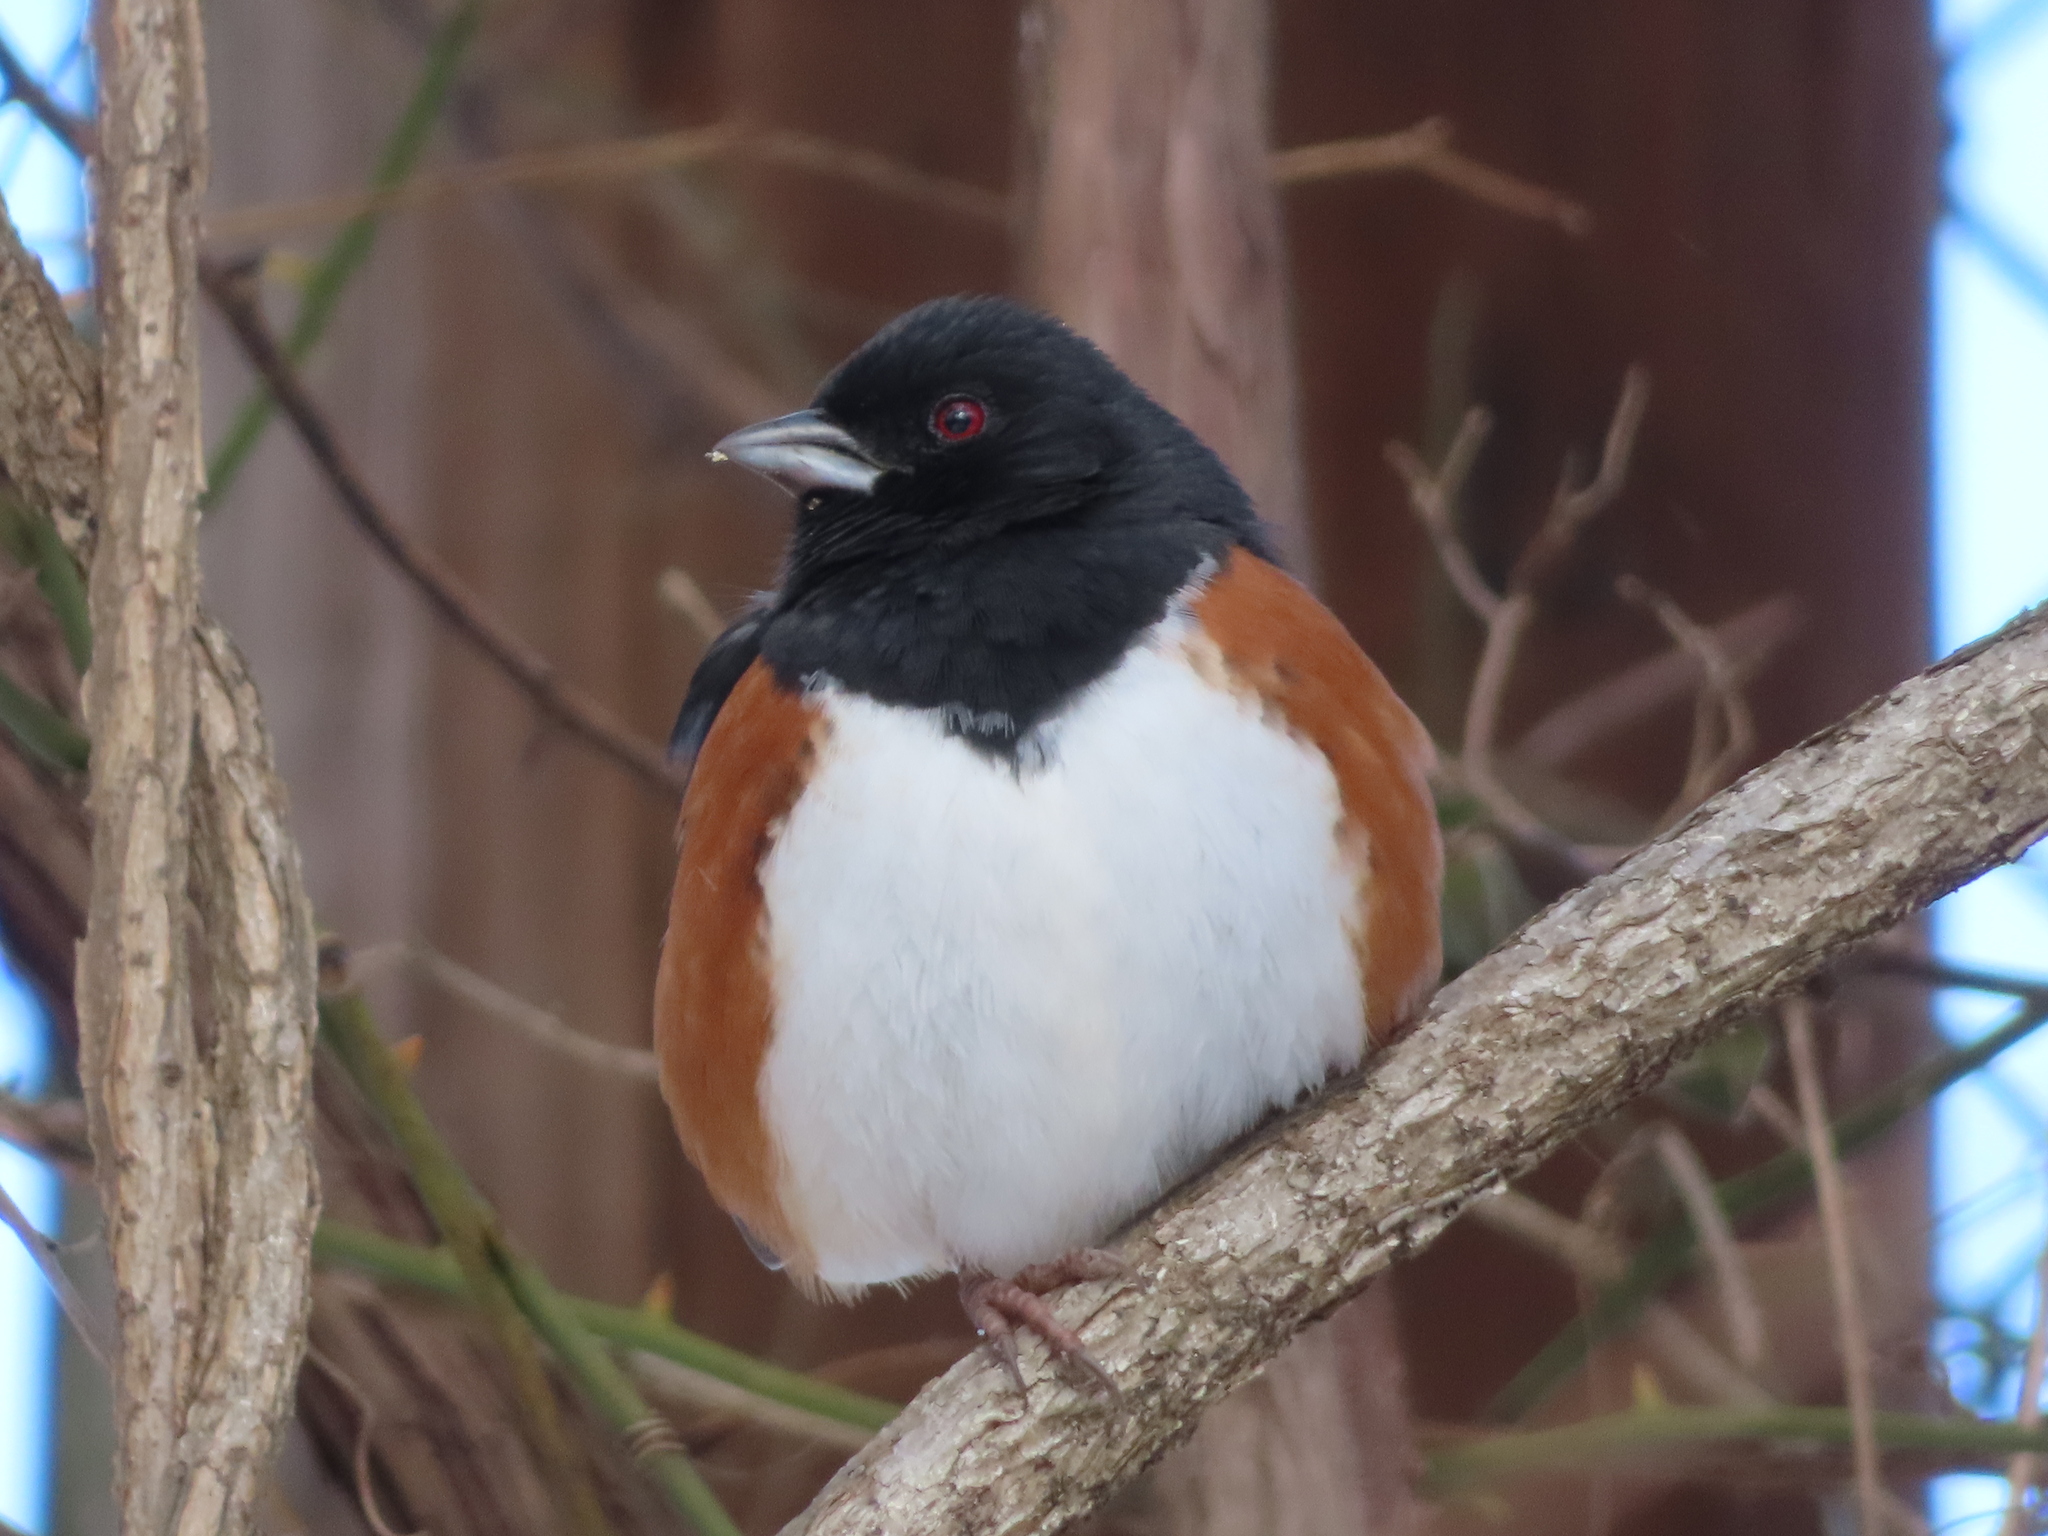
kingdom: Animalia
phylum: Chordata
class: Aves
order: Passeriformes
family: Passerellidae
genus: Pipilo
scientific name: Pipilo erythrophthalmus
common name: Eastern towhee
